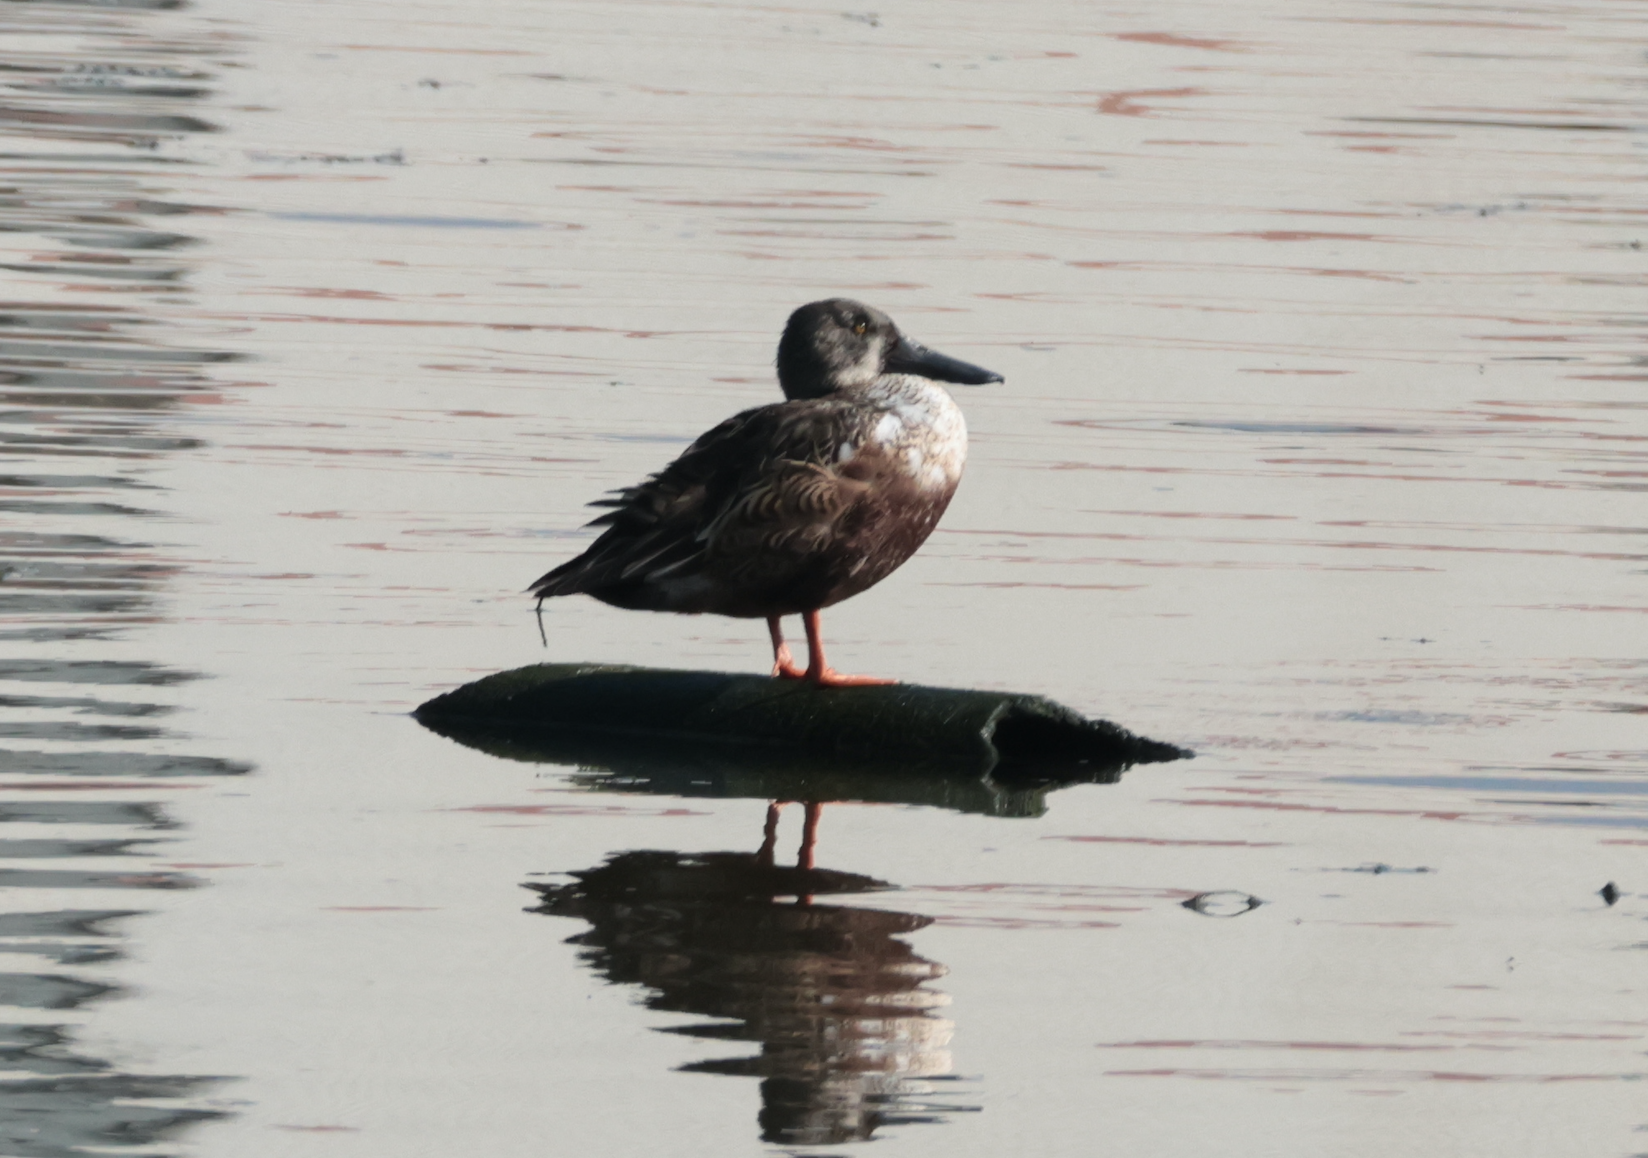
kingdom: Animalia
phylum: Chordata
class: Aves
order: Anseriformes
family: Anatidae
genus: Spatula
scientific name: Spatula clypeata
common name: Northern shoveler
